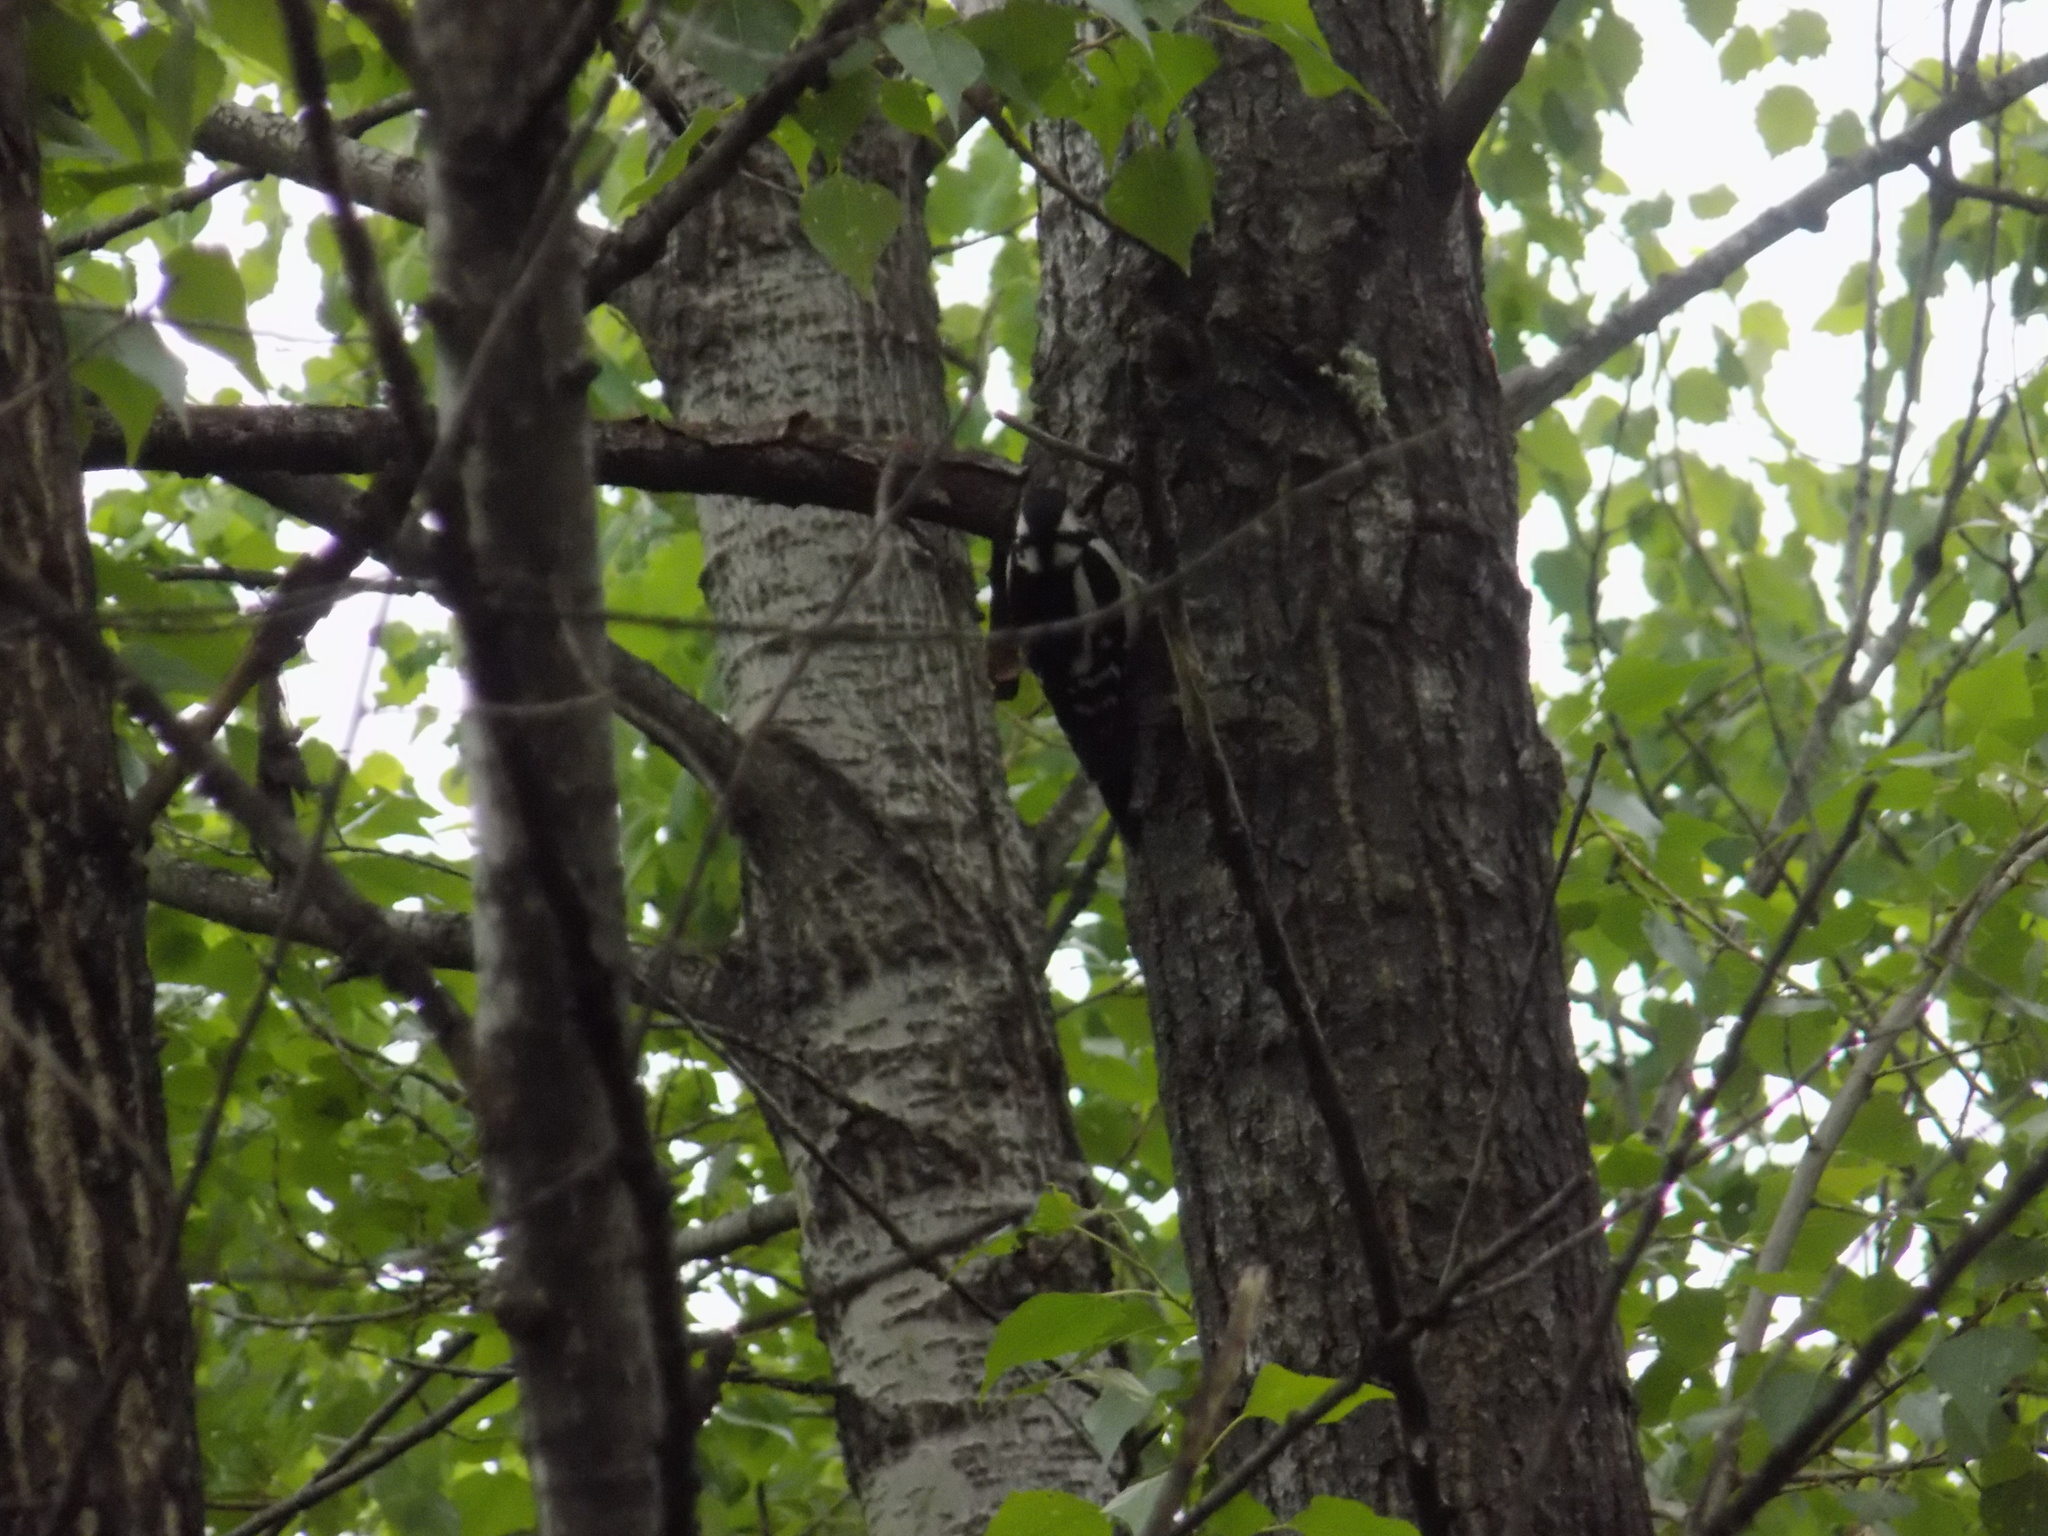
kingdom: Animalia
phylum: Chordata
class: Aves
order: Piciformes
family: Picidae
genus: Dendrocopos
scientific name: Dendrocopos major
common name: Great spotted woodpecker
